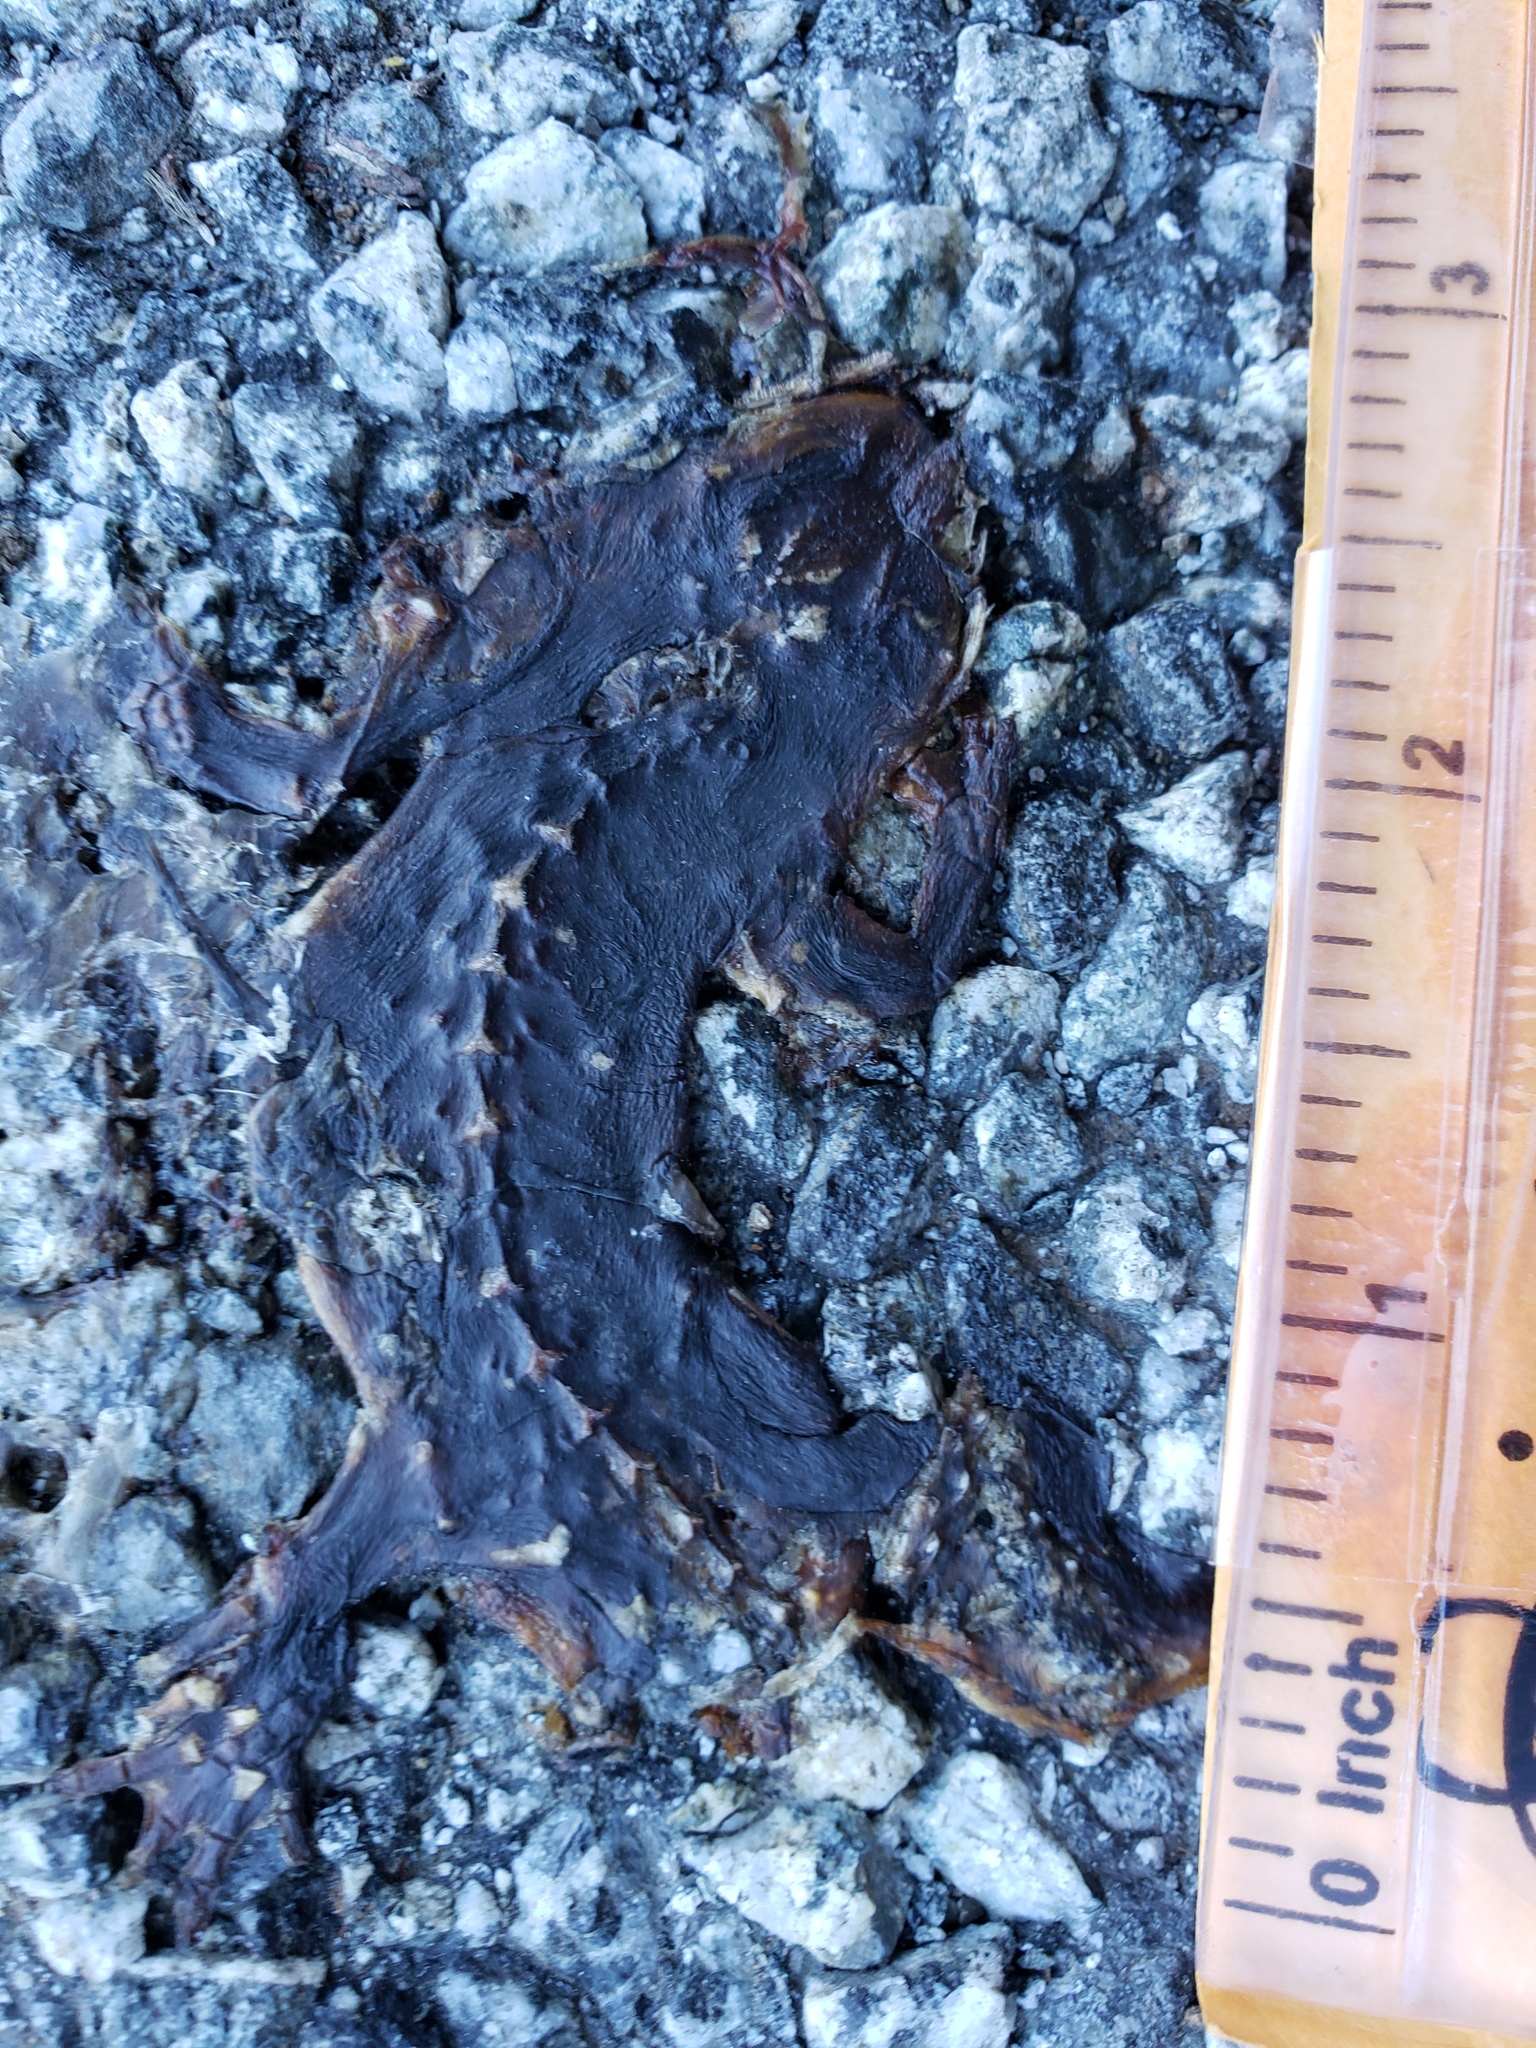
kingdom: Animalia
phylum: Chordata
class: Amphibia
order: Caudata
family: Salamandridae
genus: Taricha
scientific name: Taricha
